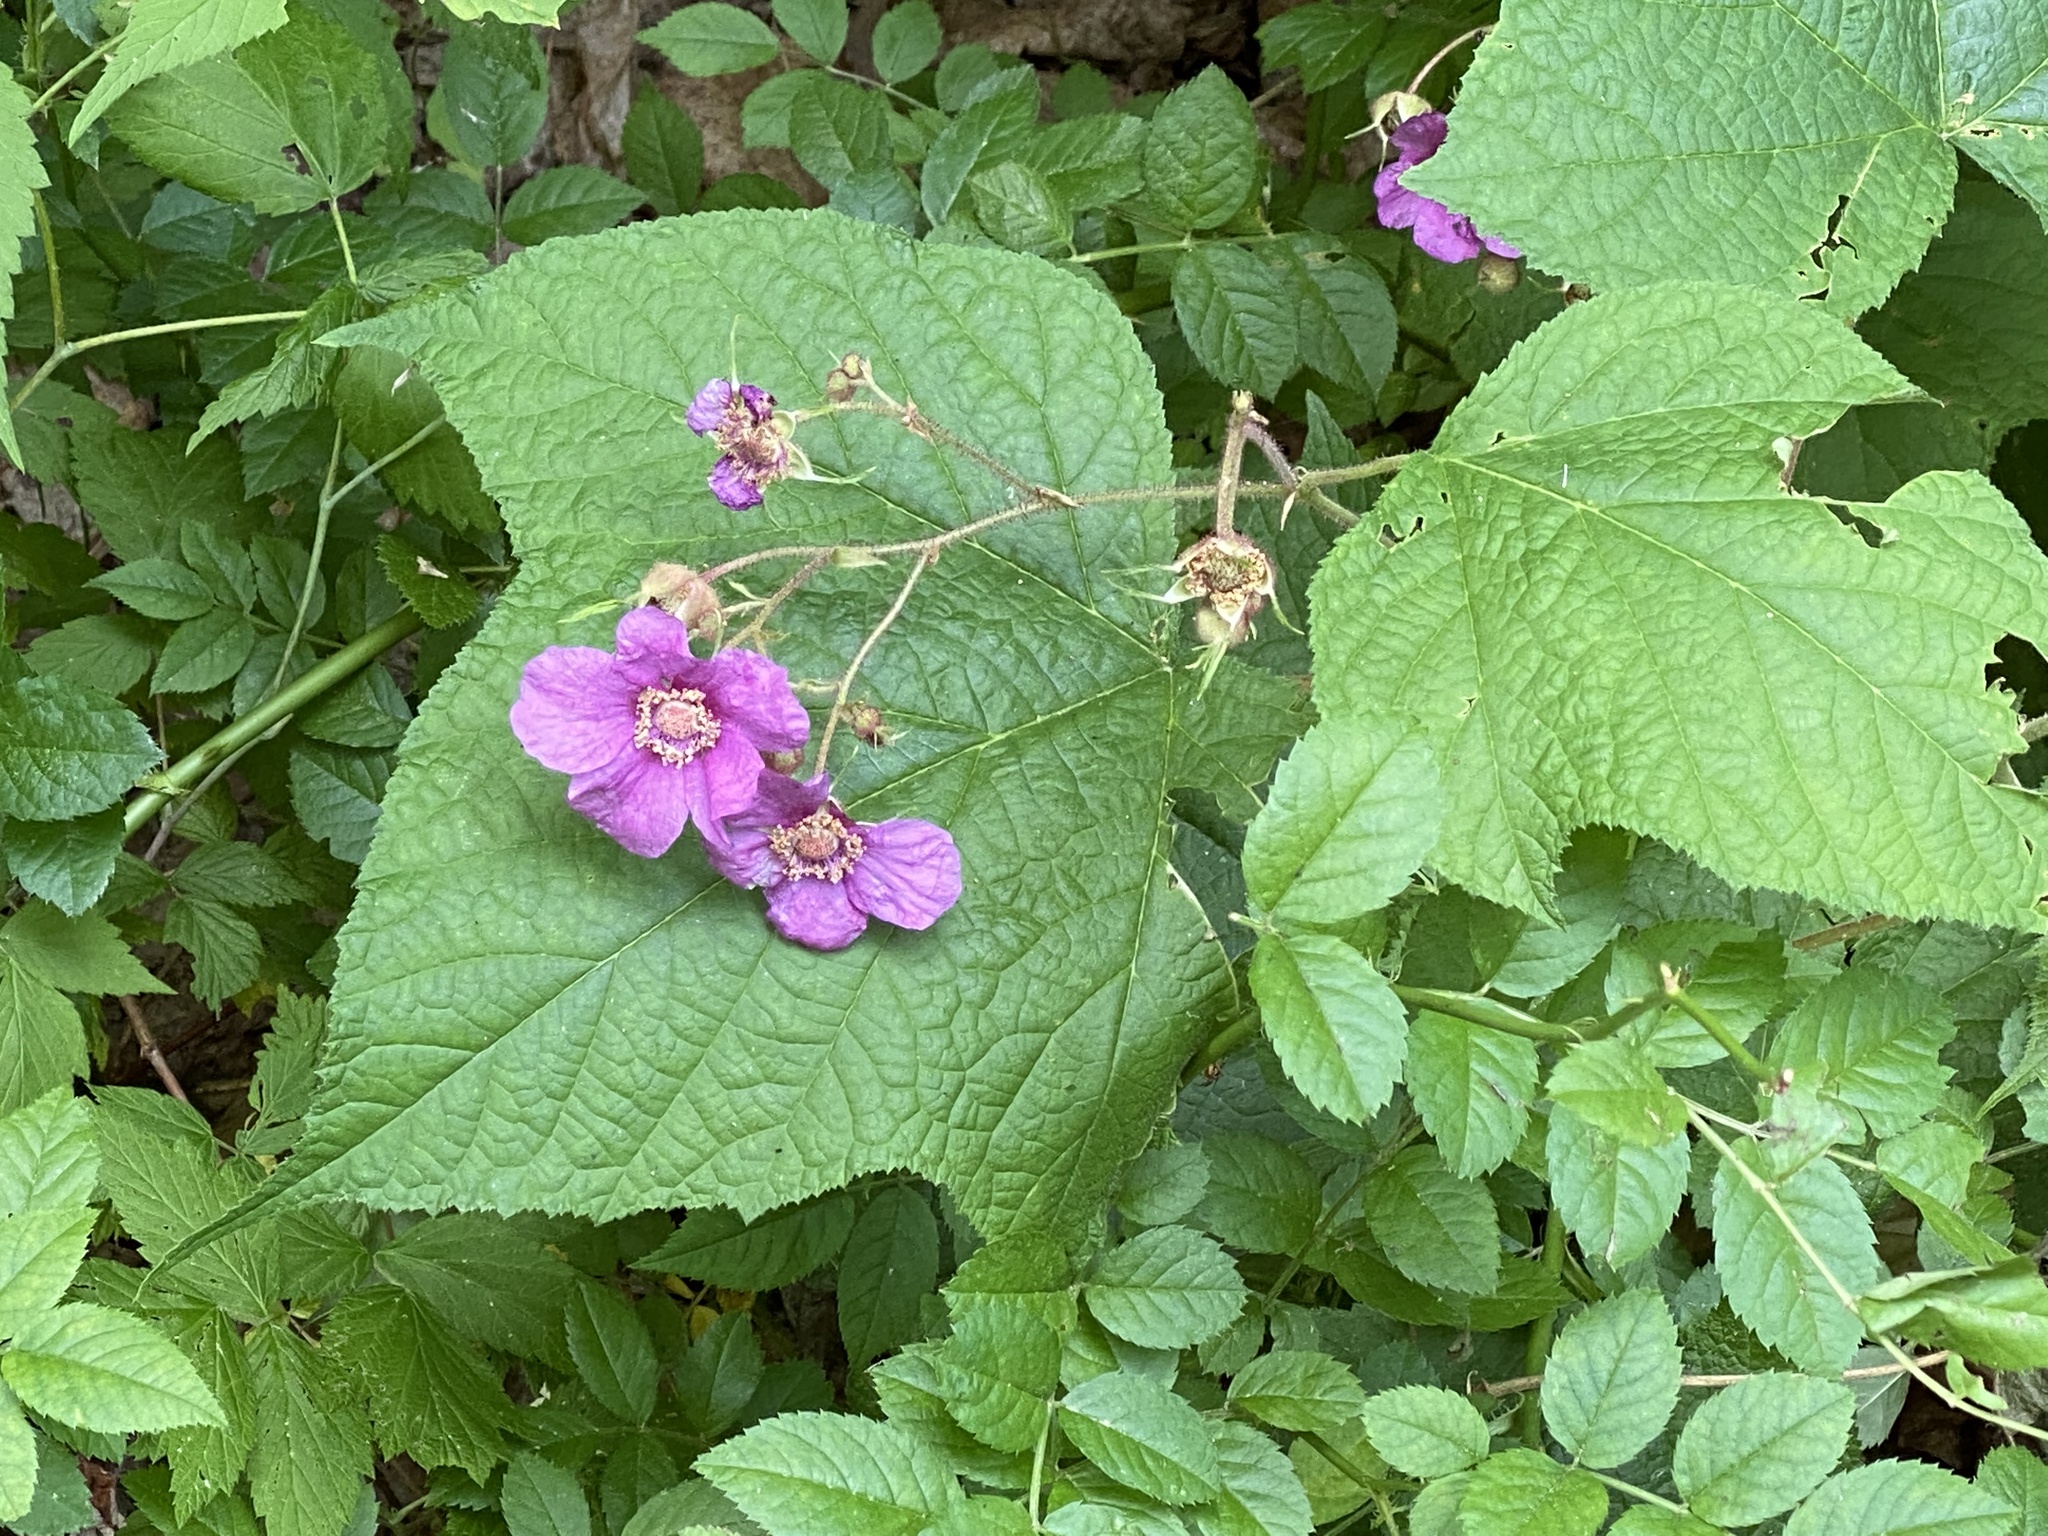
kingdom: Plantae
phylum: Tracheophyta
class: Magnoliopsida
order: Rosales
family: Rosaceae
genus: Rubus
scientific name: Rubus odoratus
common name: Purple-flowered raspberry
